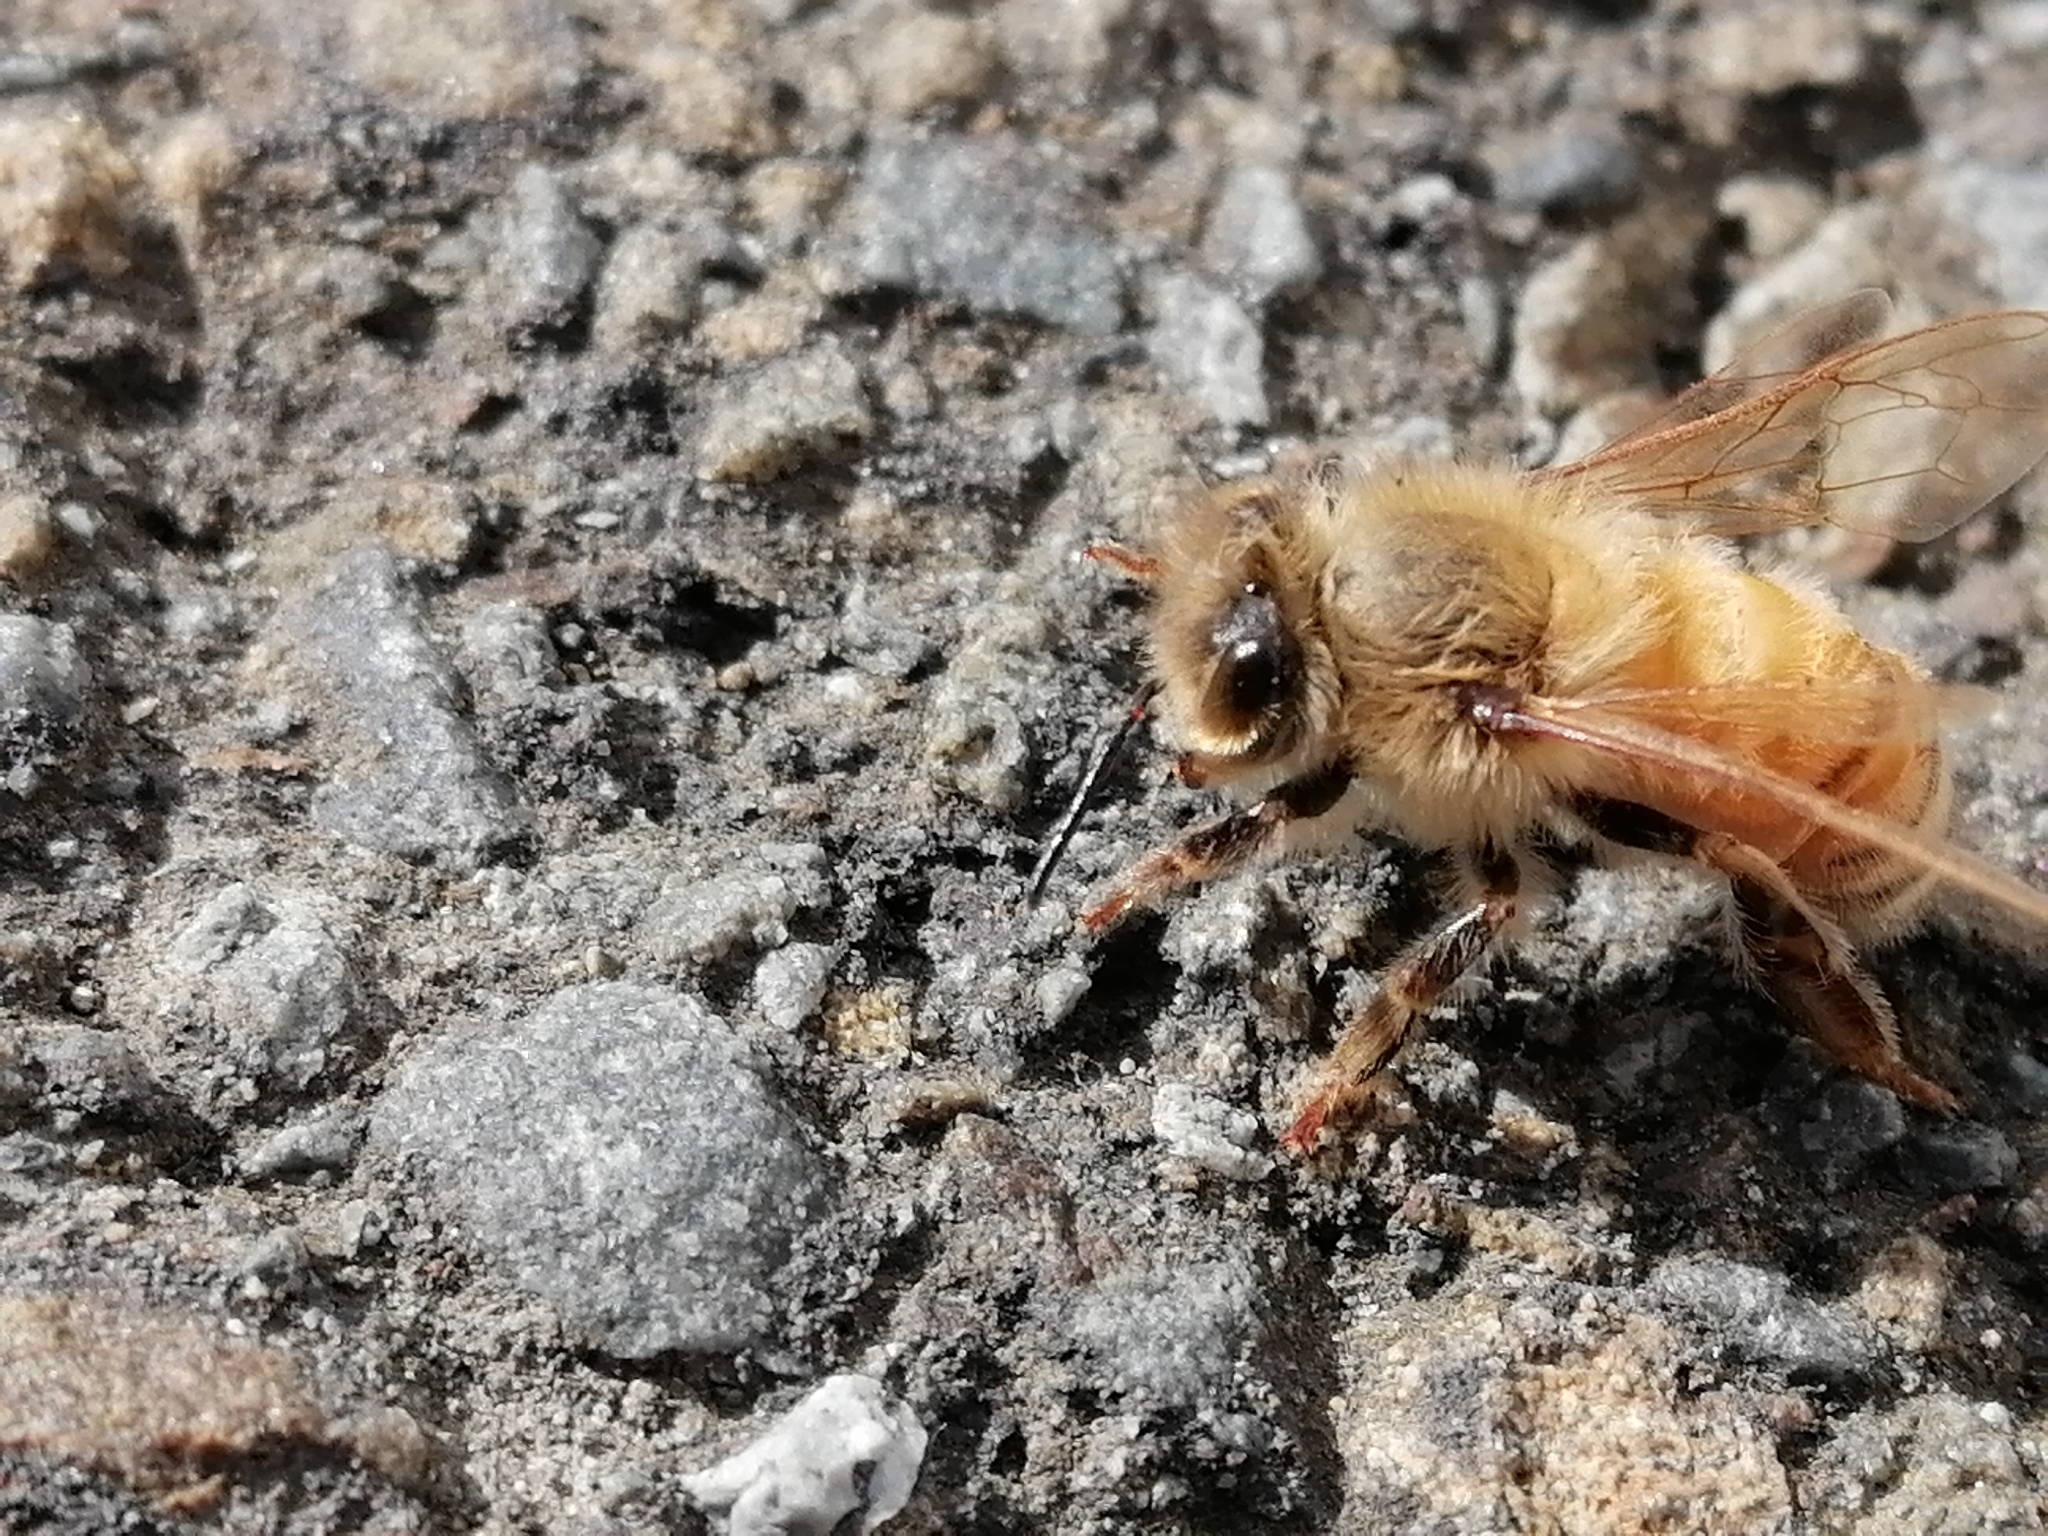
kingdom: Animalia
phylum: Arthropoda
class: Insecta
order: Hymenoptera
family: Apidae
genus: Apis
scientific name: Apis mellifera
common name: Honey bee
